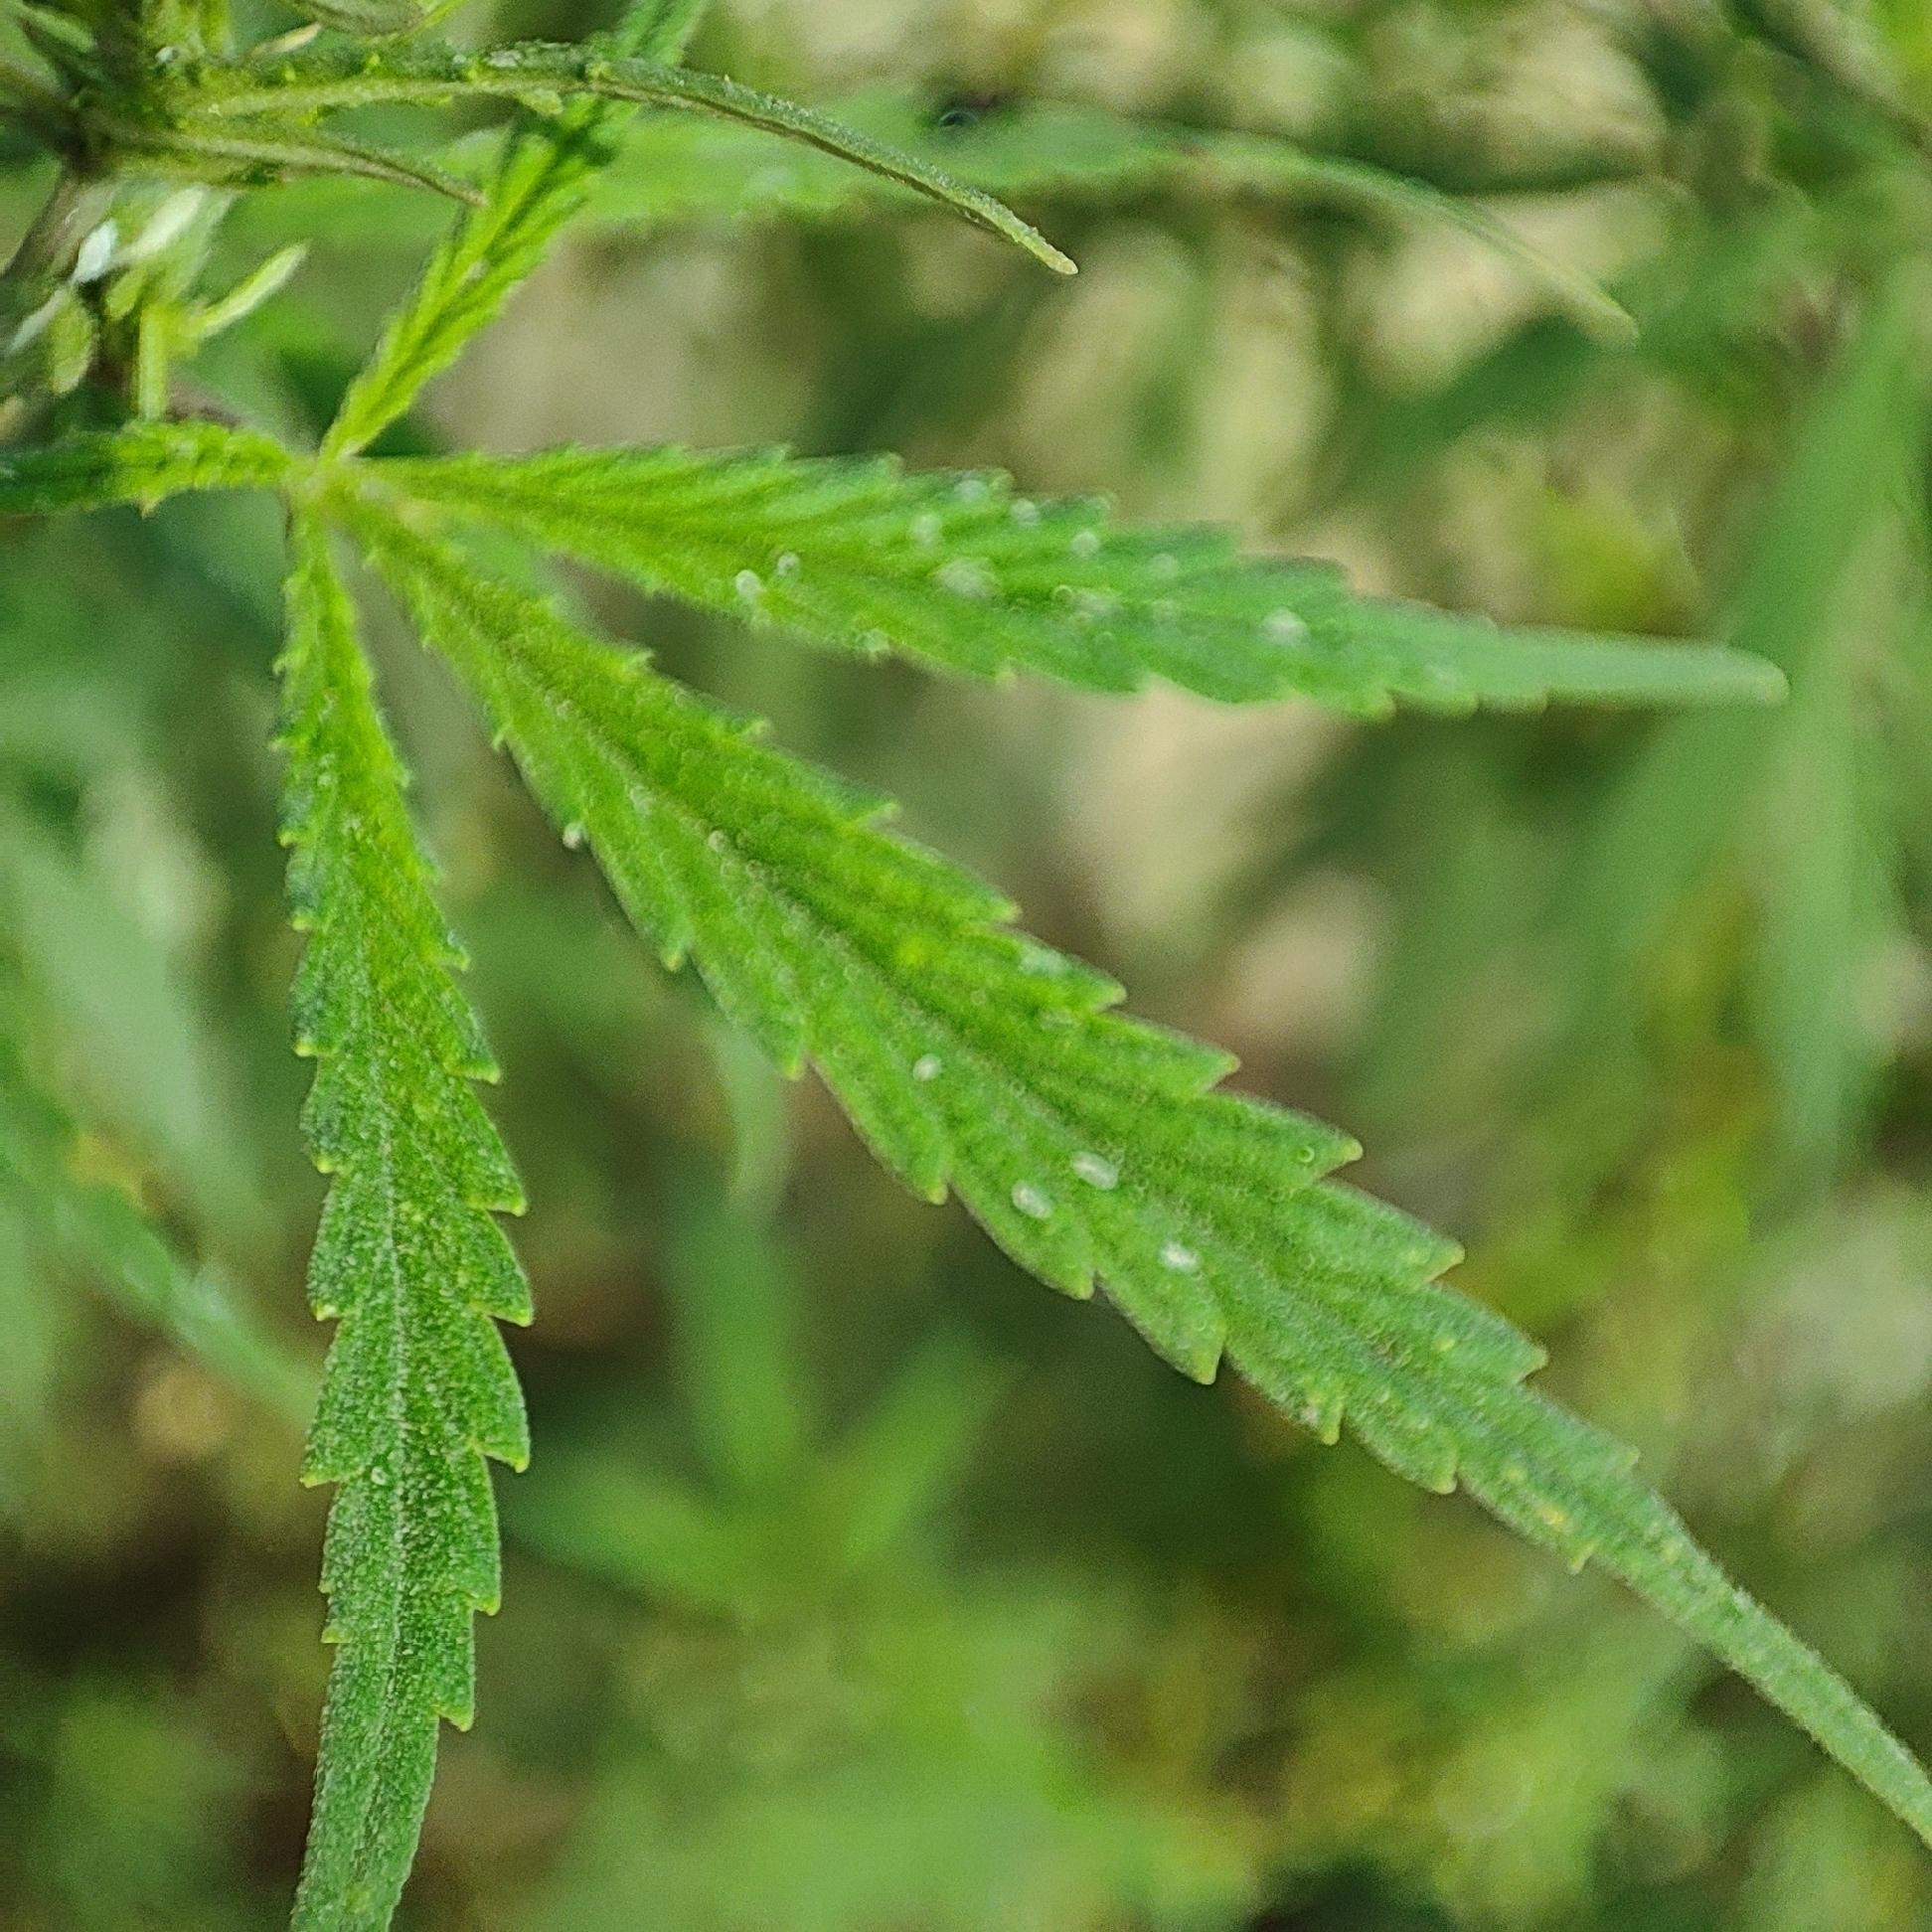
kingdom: Plantae
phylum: Tracheophyta
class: Magnoliopsida
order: Rosales
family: Cannabaceae
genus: Cannabis
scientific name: Cannabis sativa
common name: Hemp
